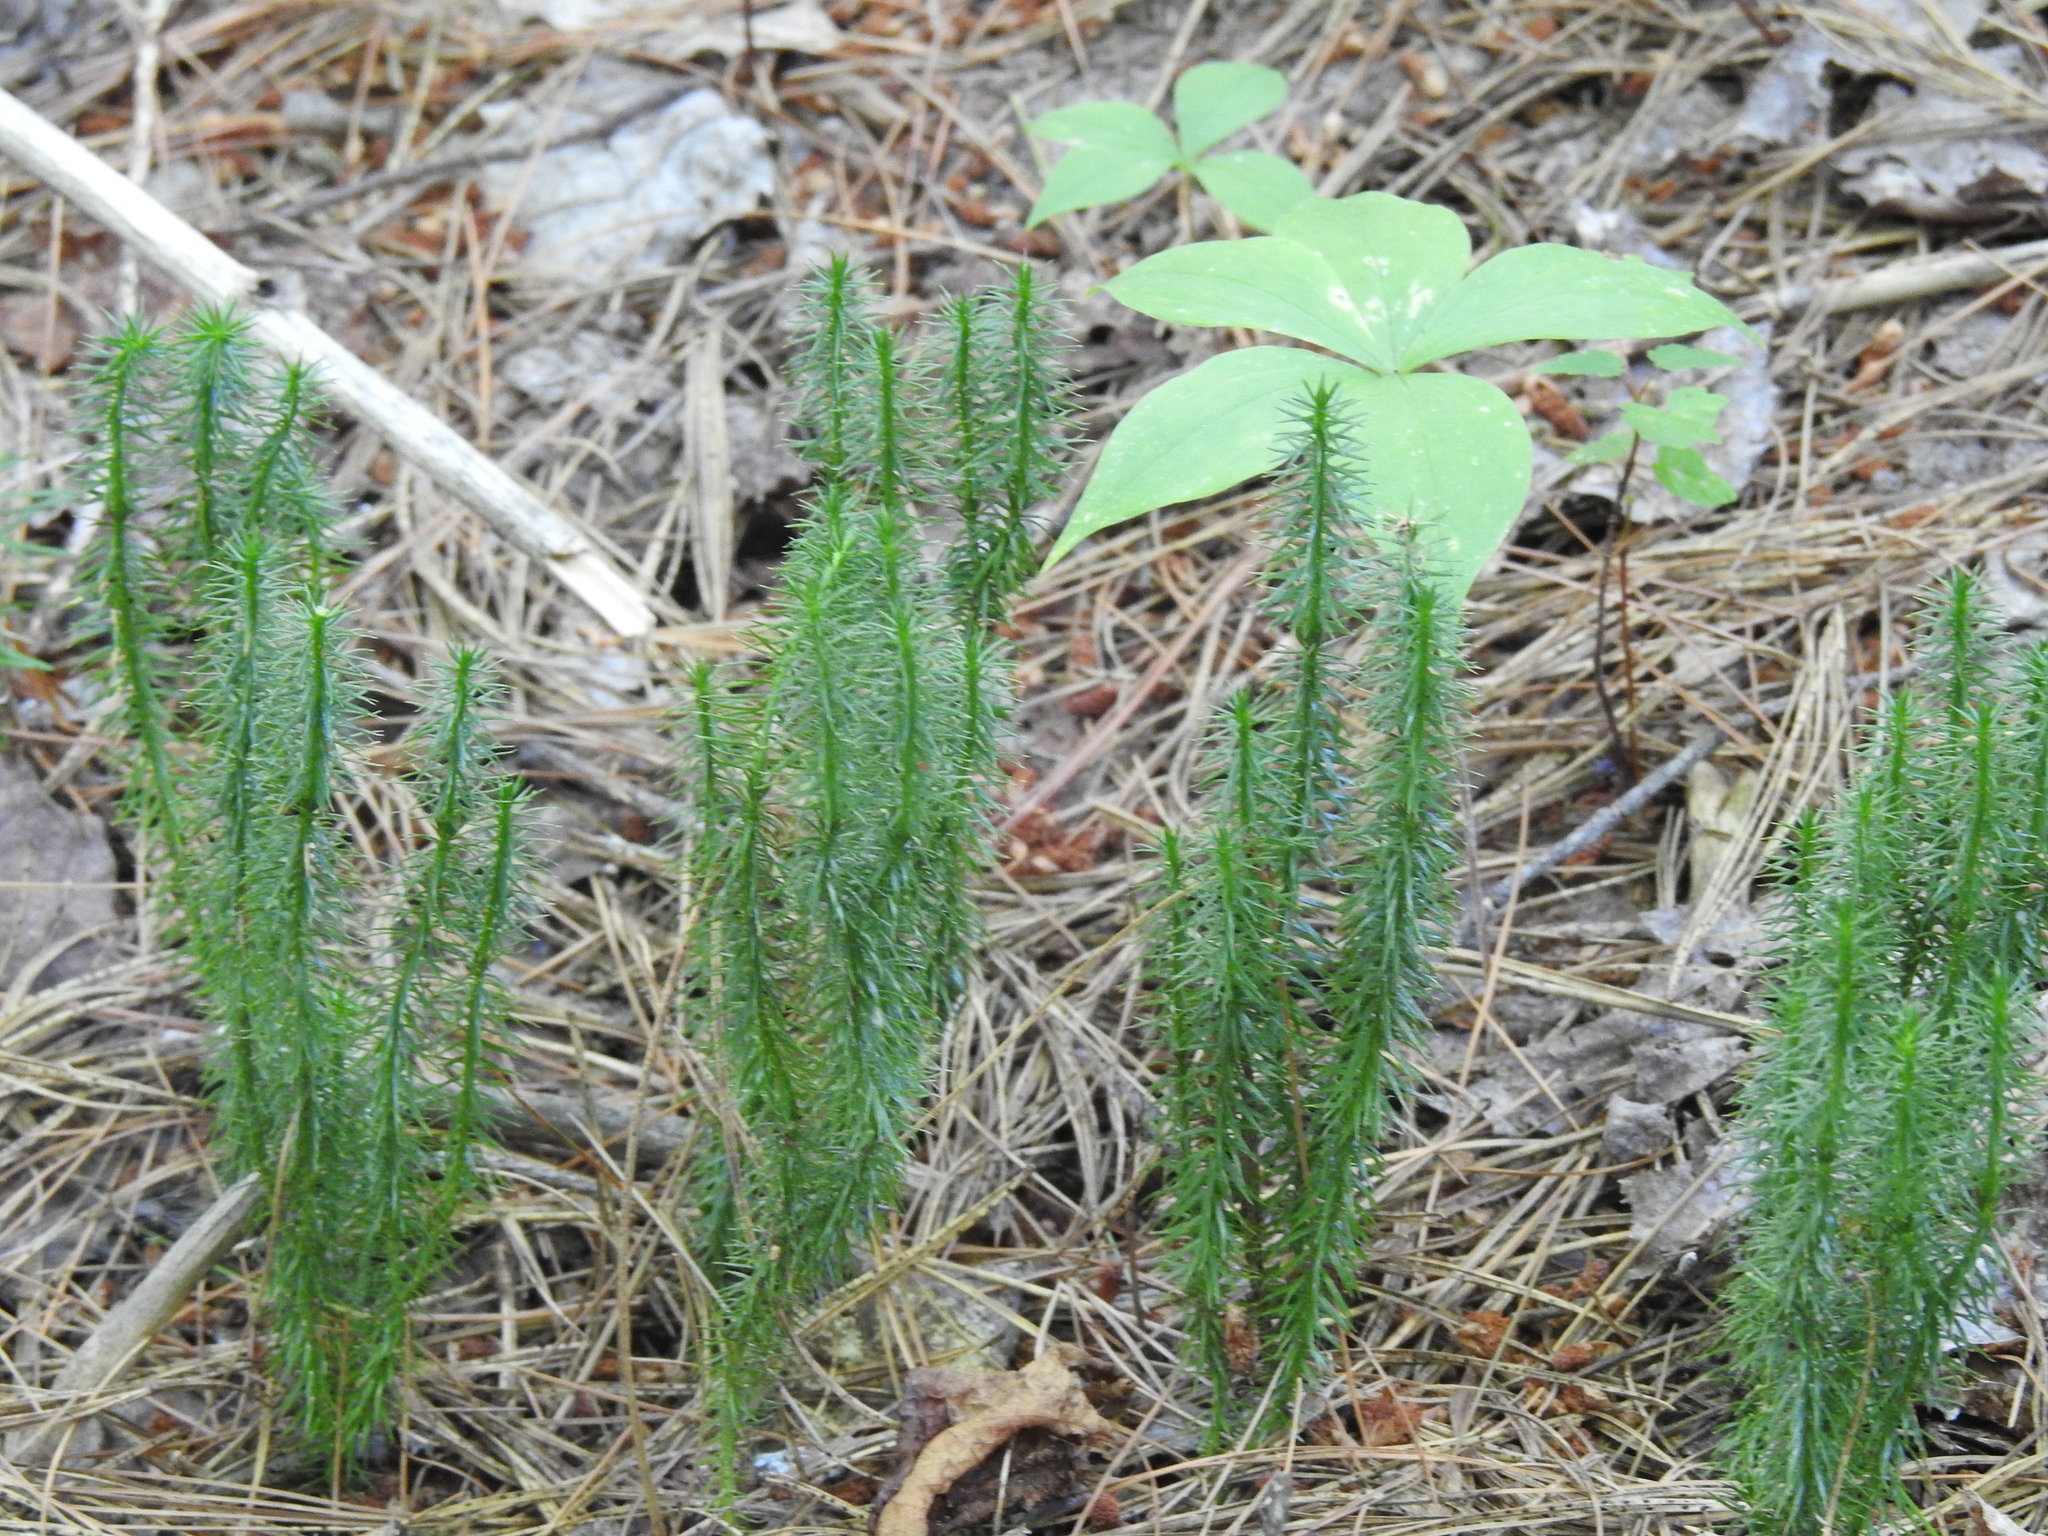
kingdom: Plantae
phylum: Tracheophyta
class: Lycopodiopsida
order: Lycopodiales
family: Lycopodiaceae
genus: Spinulum
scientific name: Spinulum annotinum
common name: Interrupted club-moss
